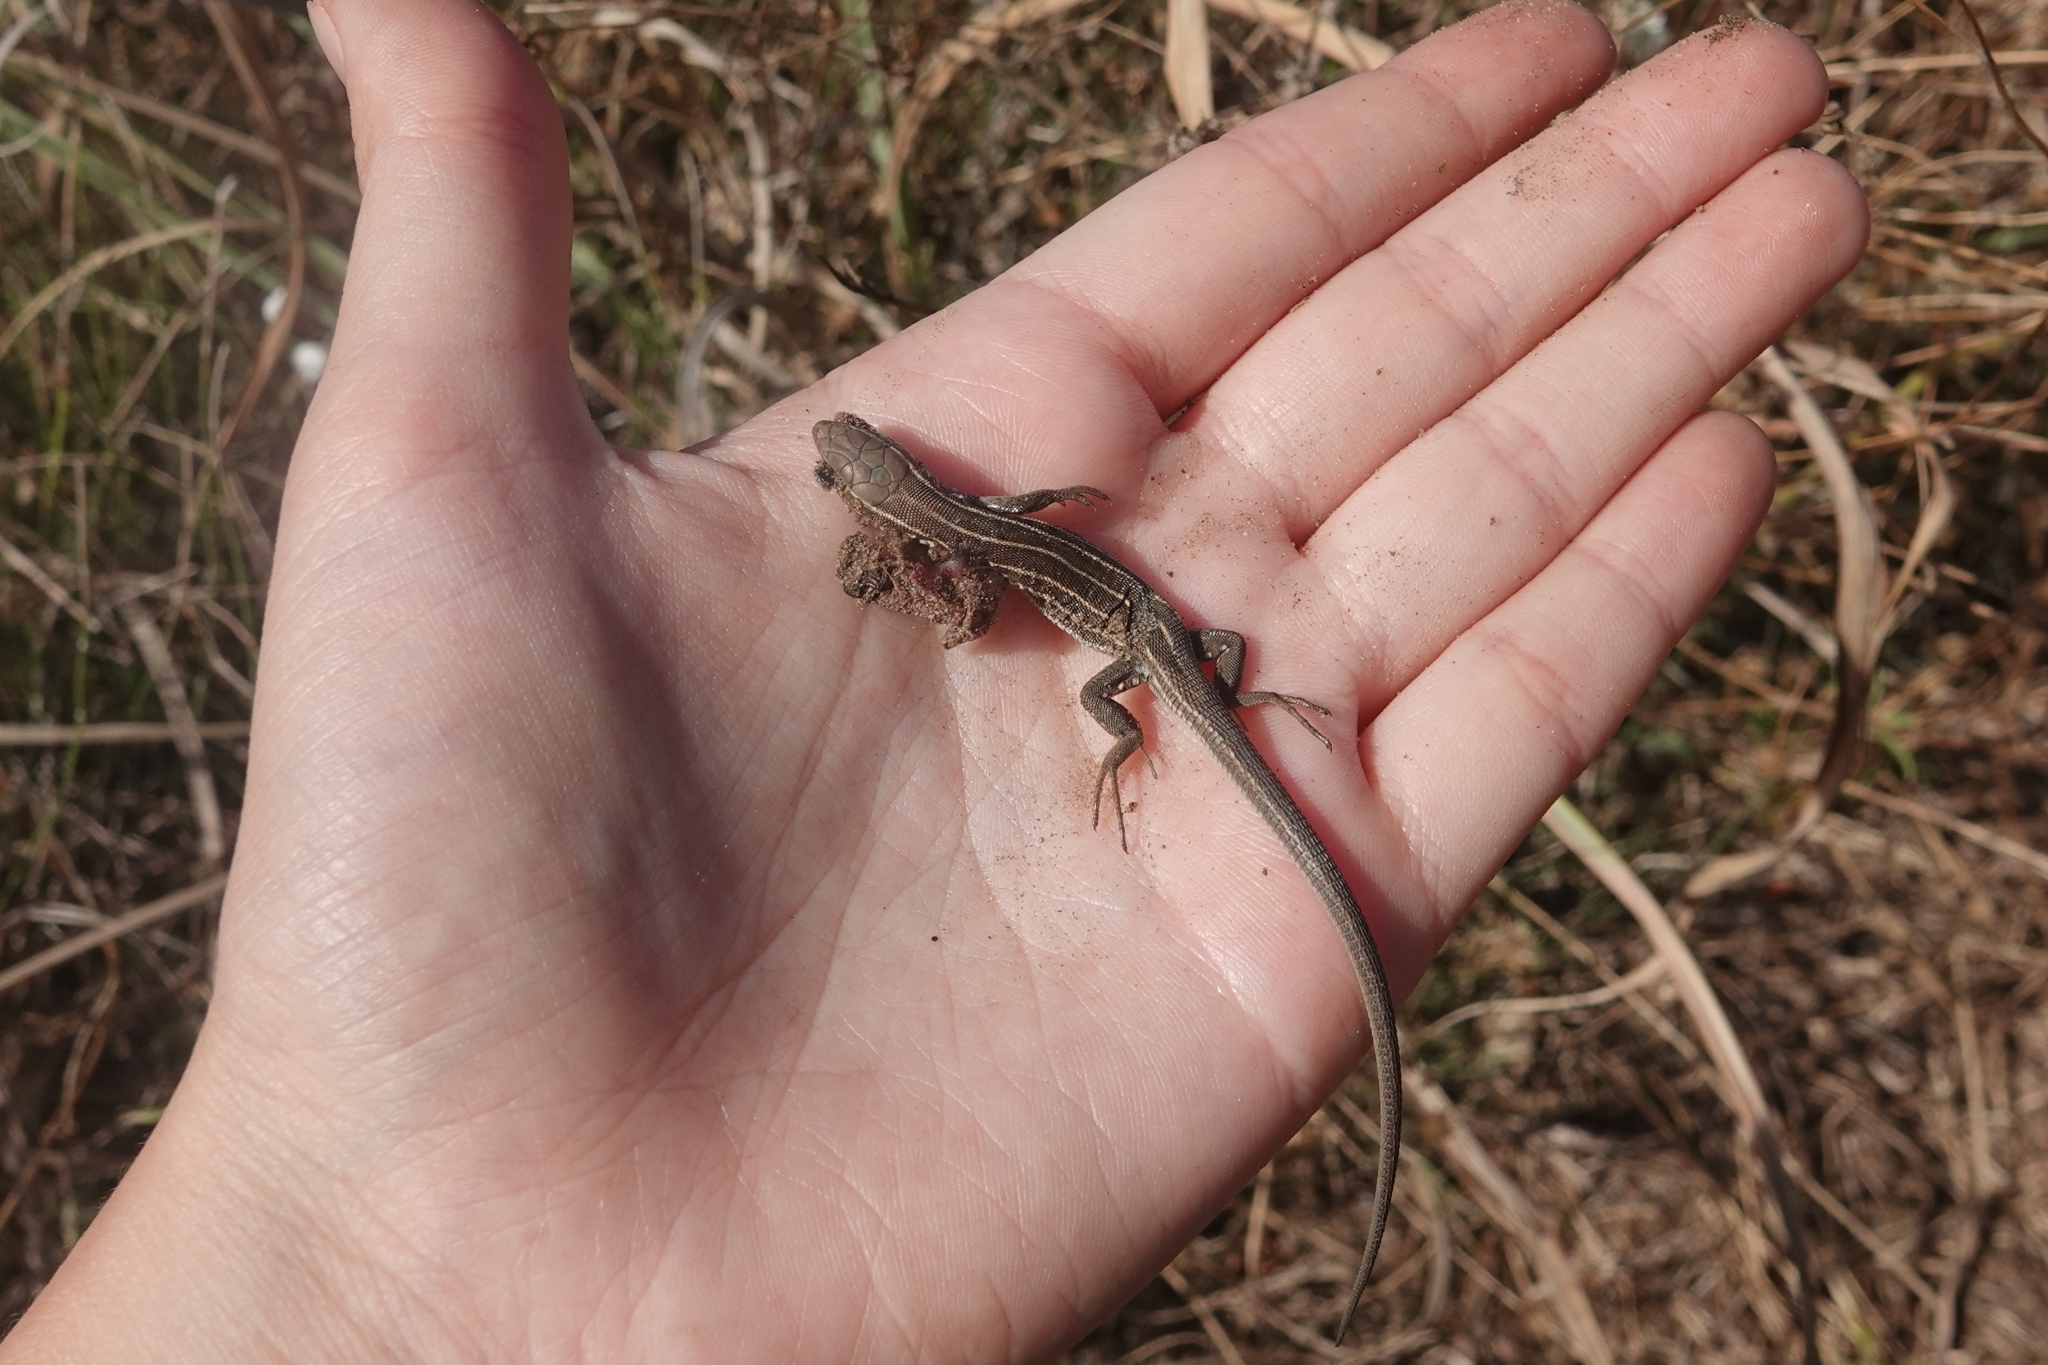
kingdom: Animalia
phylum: Chordata
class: Squamata
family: Lacertidae
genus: Lacerta
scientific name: Lacerta strigata
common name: Caspian green lizard
